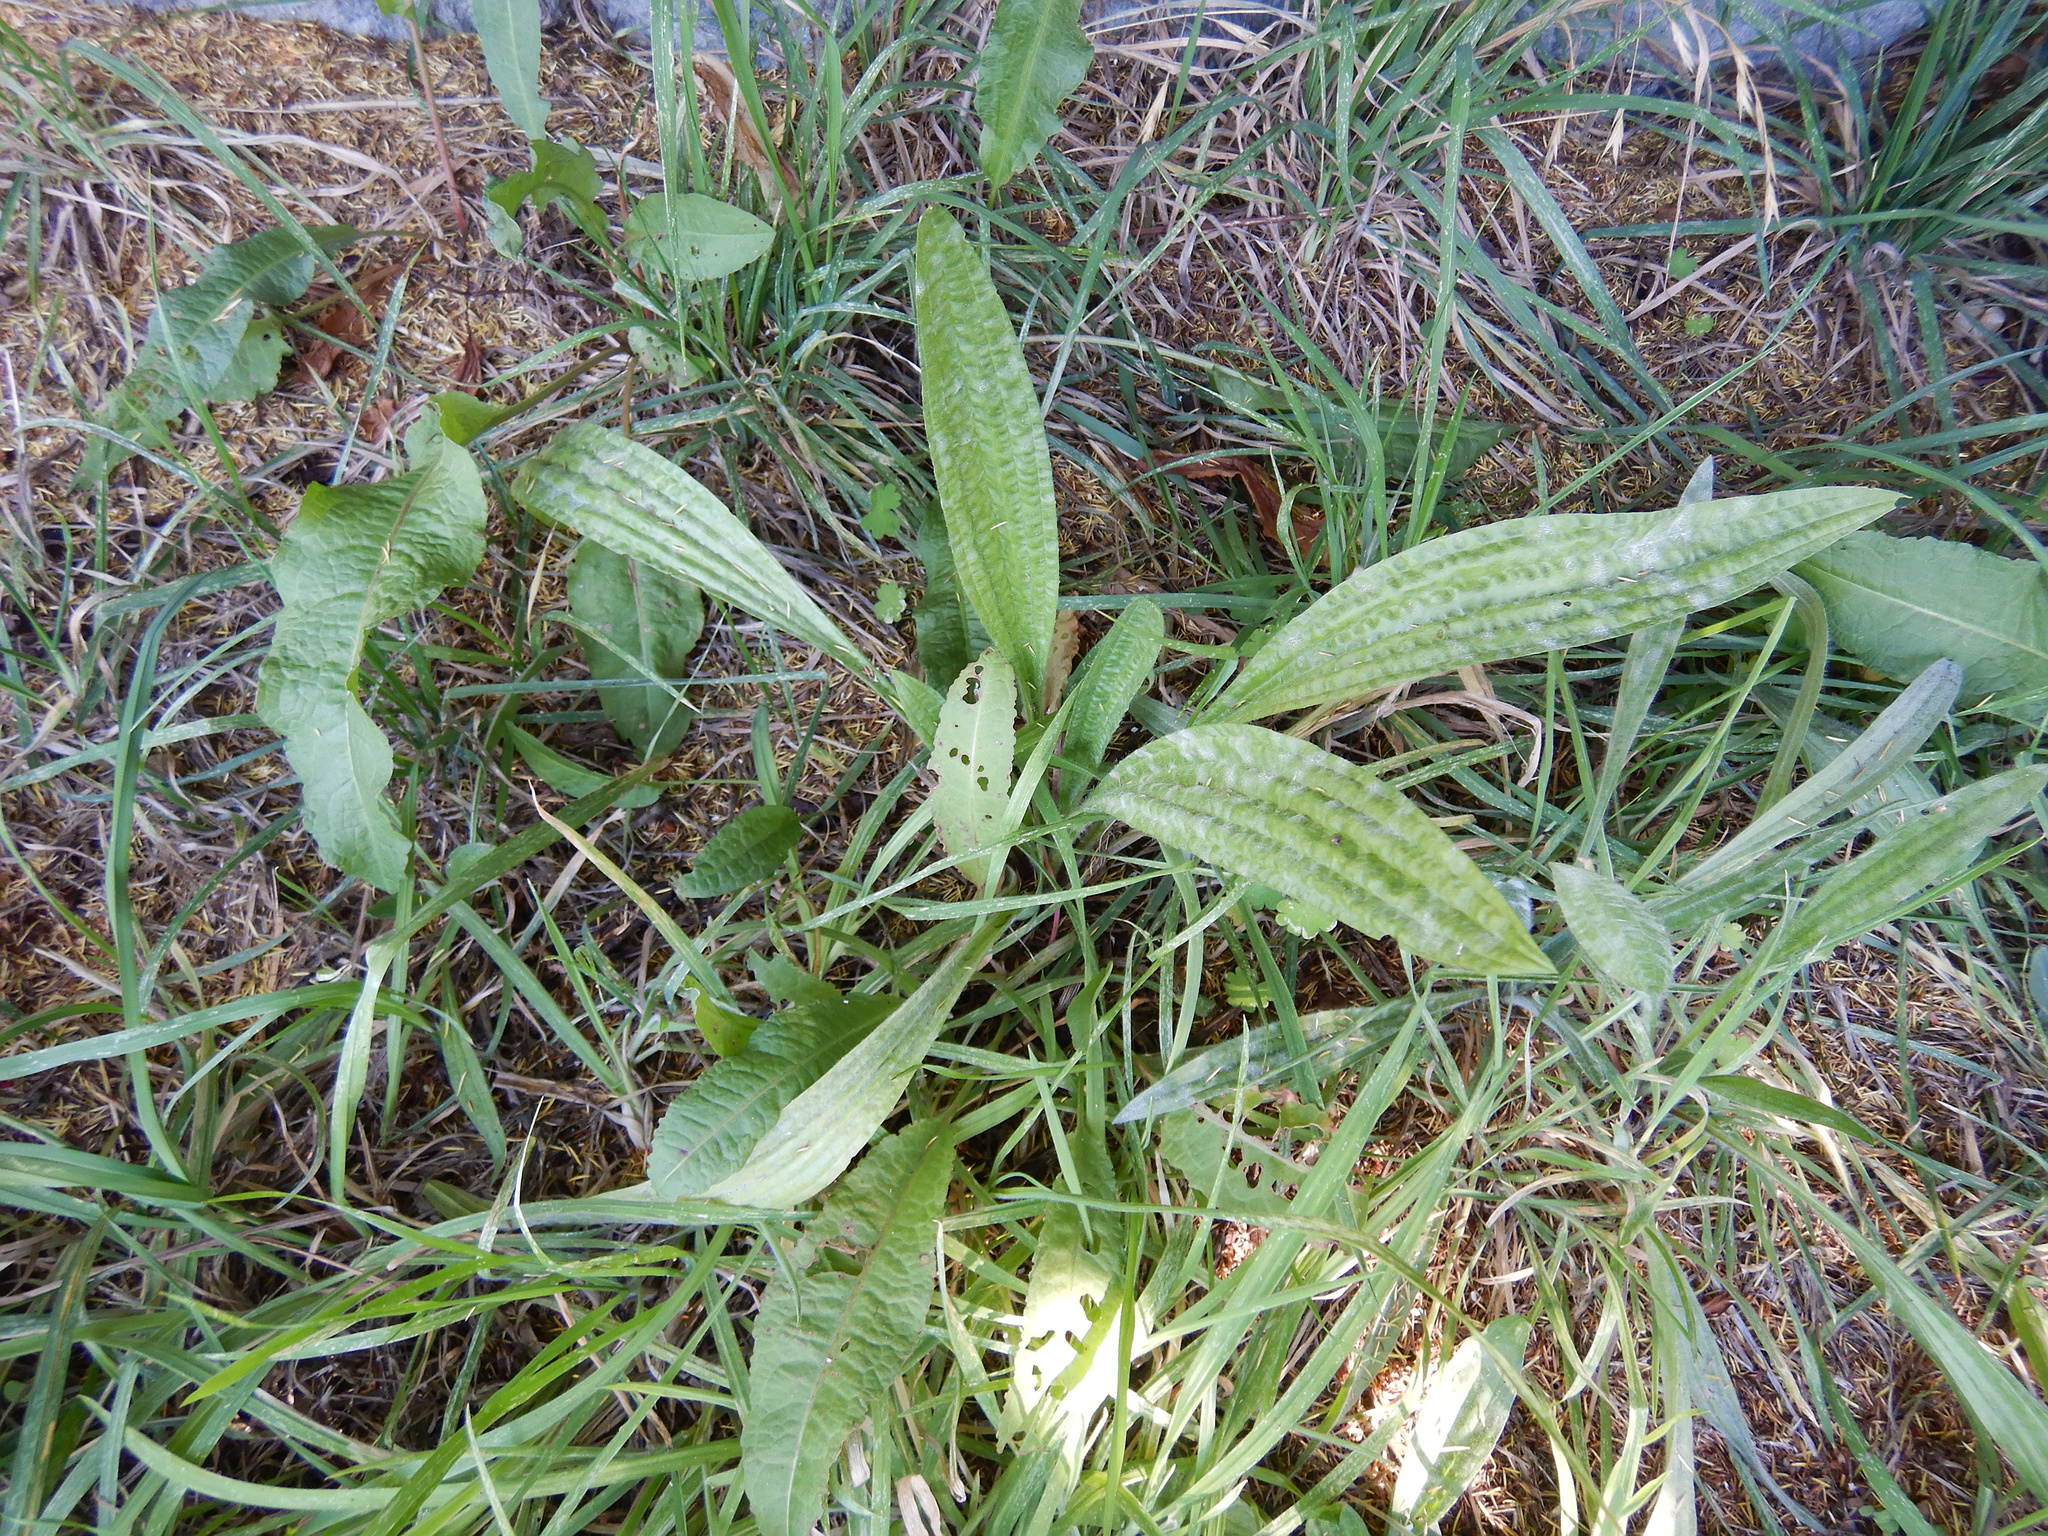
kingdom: Plantae
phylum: Tracheophyta
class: Magnoliopsida
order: Lamiales
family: Plantaginaceae
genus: Plantago
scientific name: Plantago lanceolata
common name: Ribwort plantain
